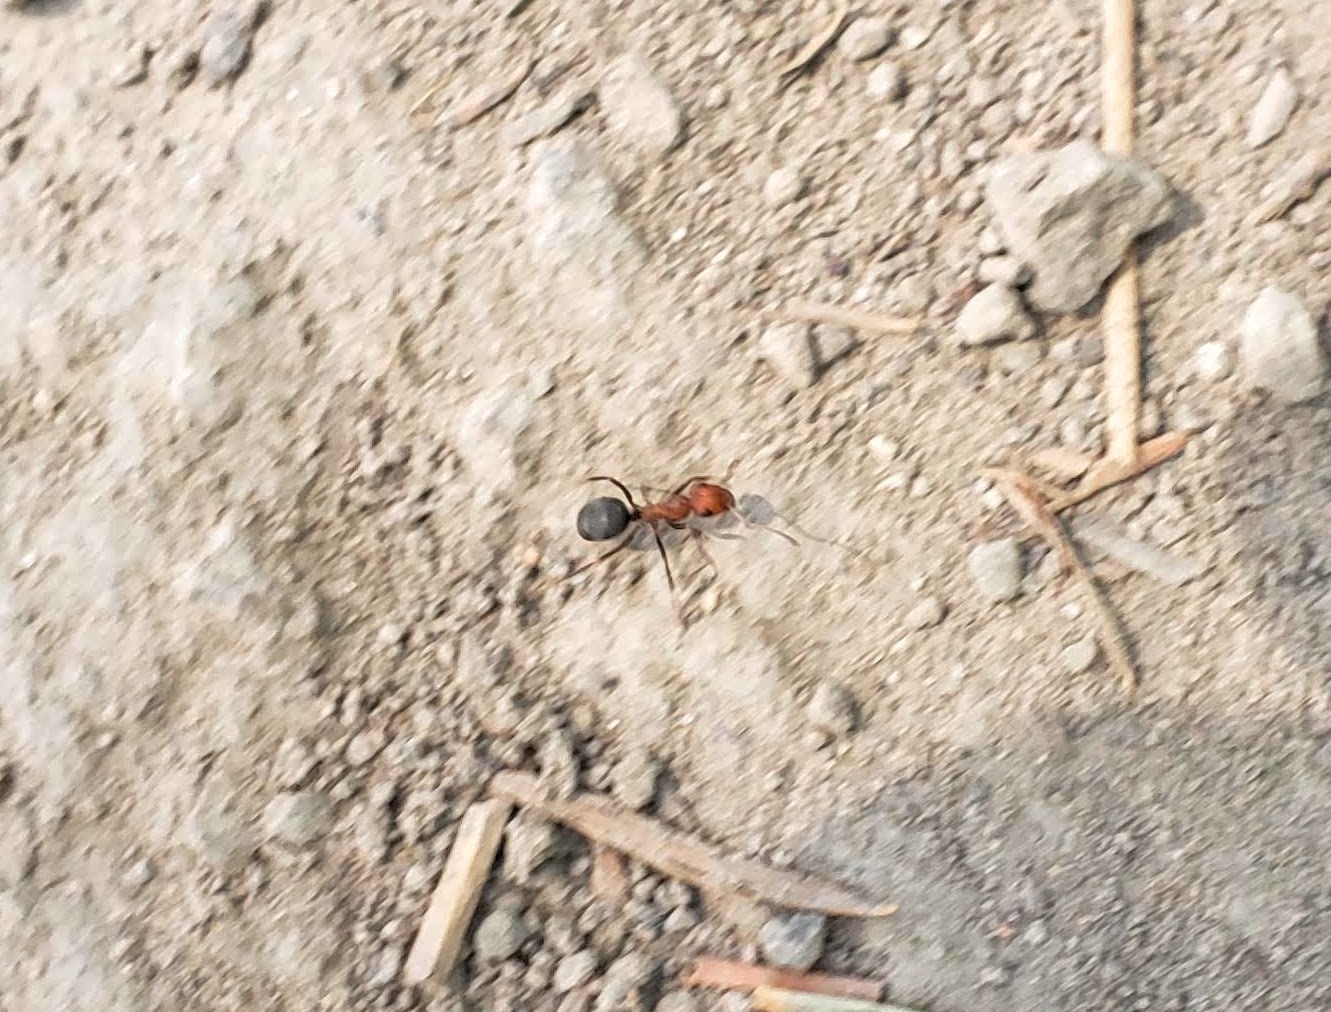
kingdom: Animalia
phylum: Arthropoda
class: Insecta
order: Hymenoptera
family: Formicidae
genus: Formica
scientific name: Formica
